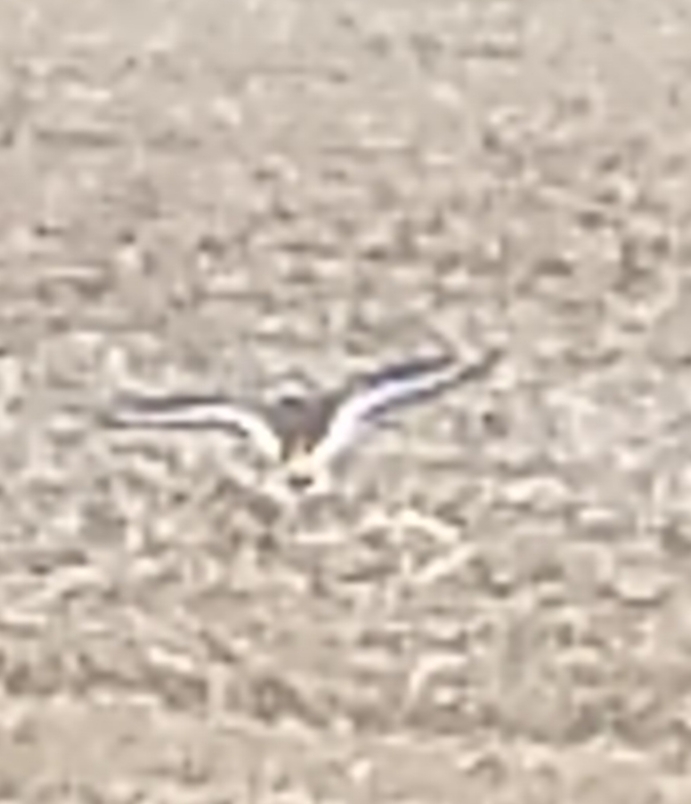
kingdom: Animalia
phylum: Chordata
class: Aves
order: Charadriiformes
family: Charadriidae
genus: Charadrius
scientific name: Charadrius vociferus
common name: Killdeer
